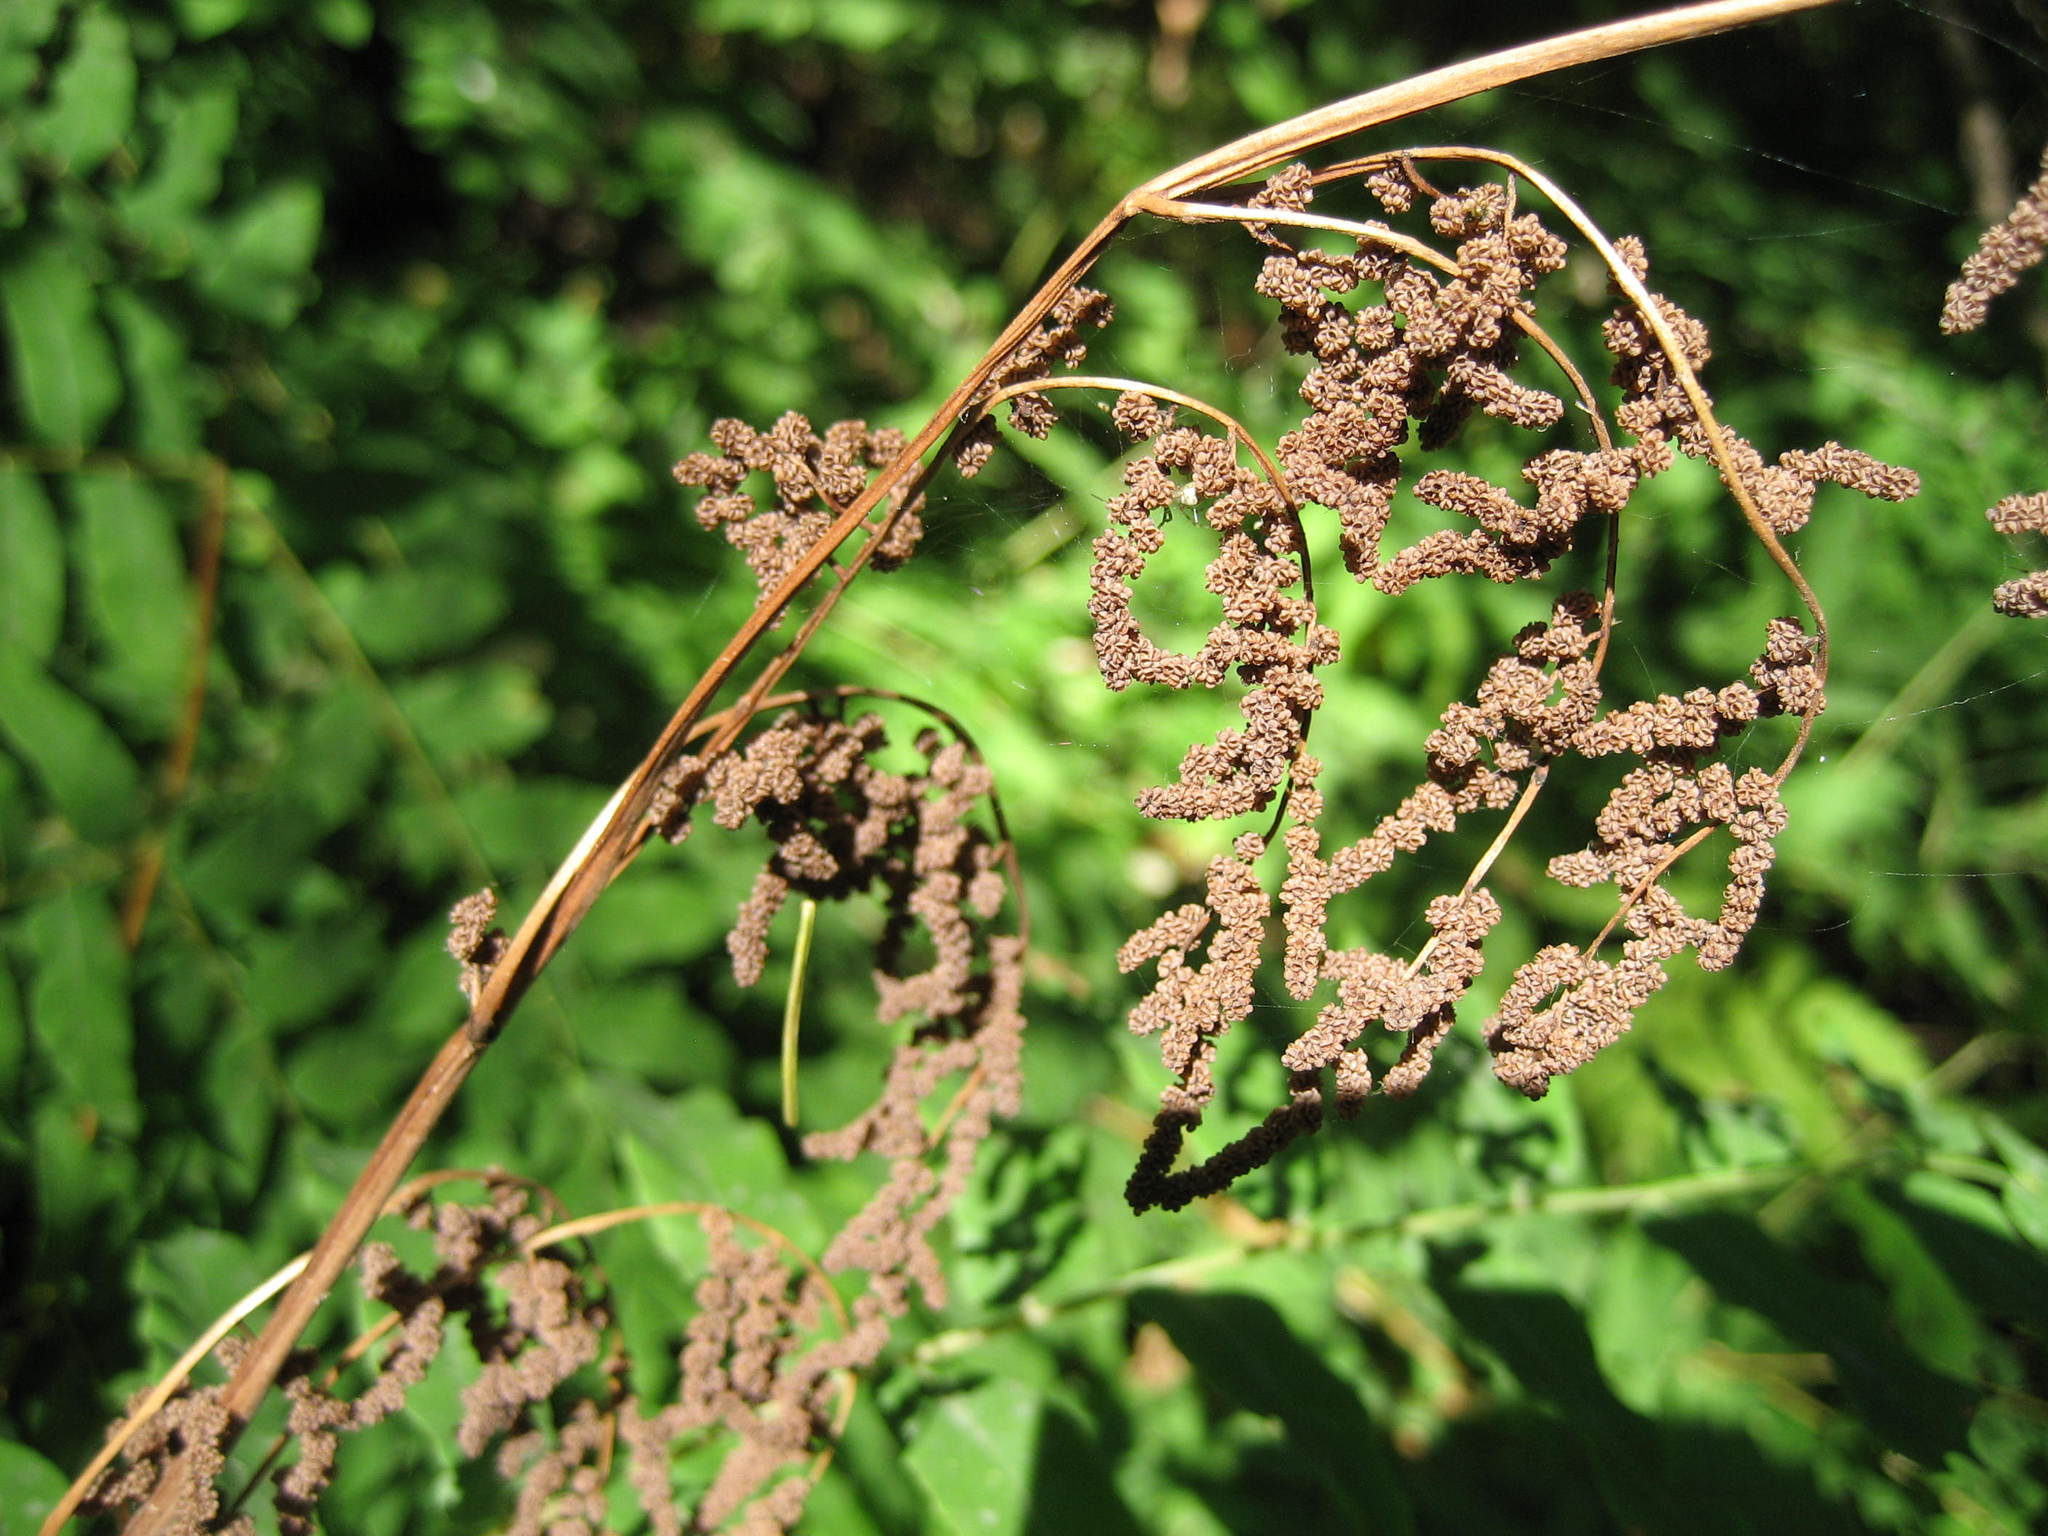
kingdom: Plantae
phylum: Tracheophyta
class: Polypodiopsida
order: Osmundales
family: Osmundaceae
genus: Osmunda
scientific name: Osmunda spectabilis
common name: American royal fern
